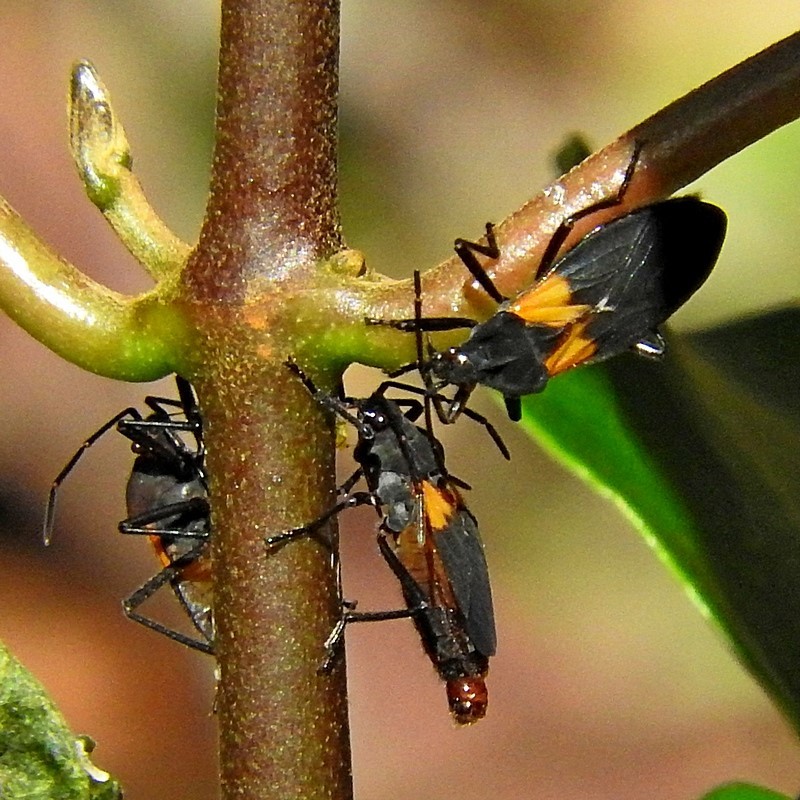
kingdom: Animalia
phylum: Arthropoda
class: Insecta
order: Hemiptera
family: Lygaeidae
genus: Oncopeltus
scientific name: Oncopeltus sordidus
